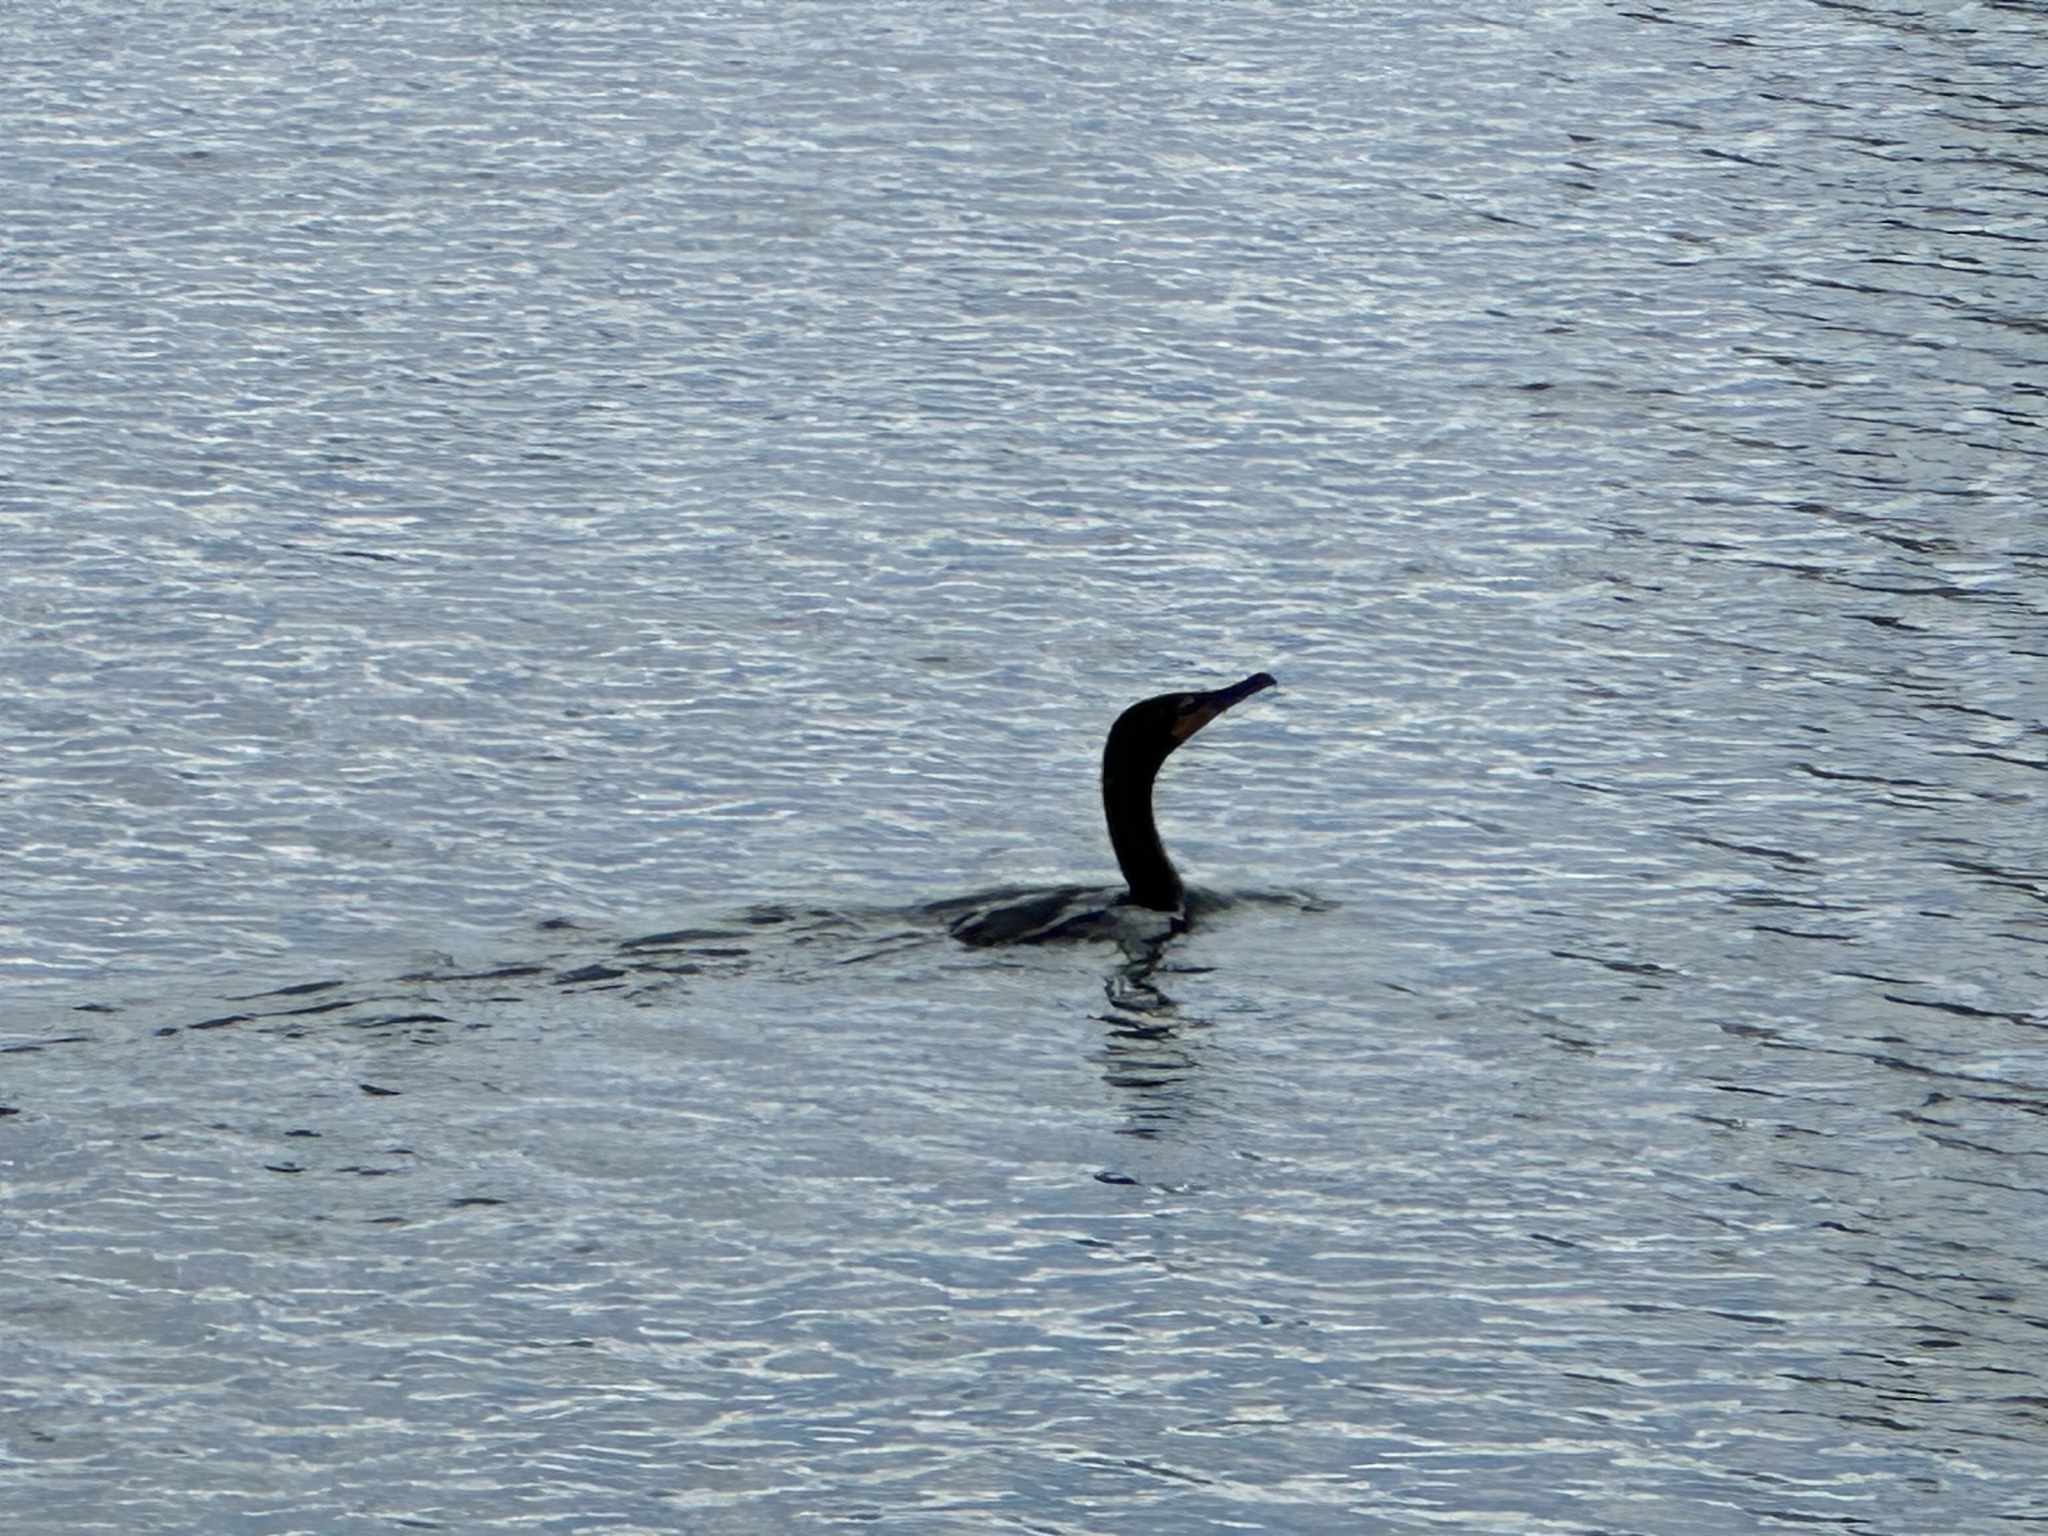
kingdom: Animalia
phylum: Chordata
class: Aves
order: Suliformes
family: Phalacrocoracidae
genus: Phalacrocorax
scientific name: Phalacrocorax auritus
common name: Double-crested cormorant
